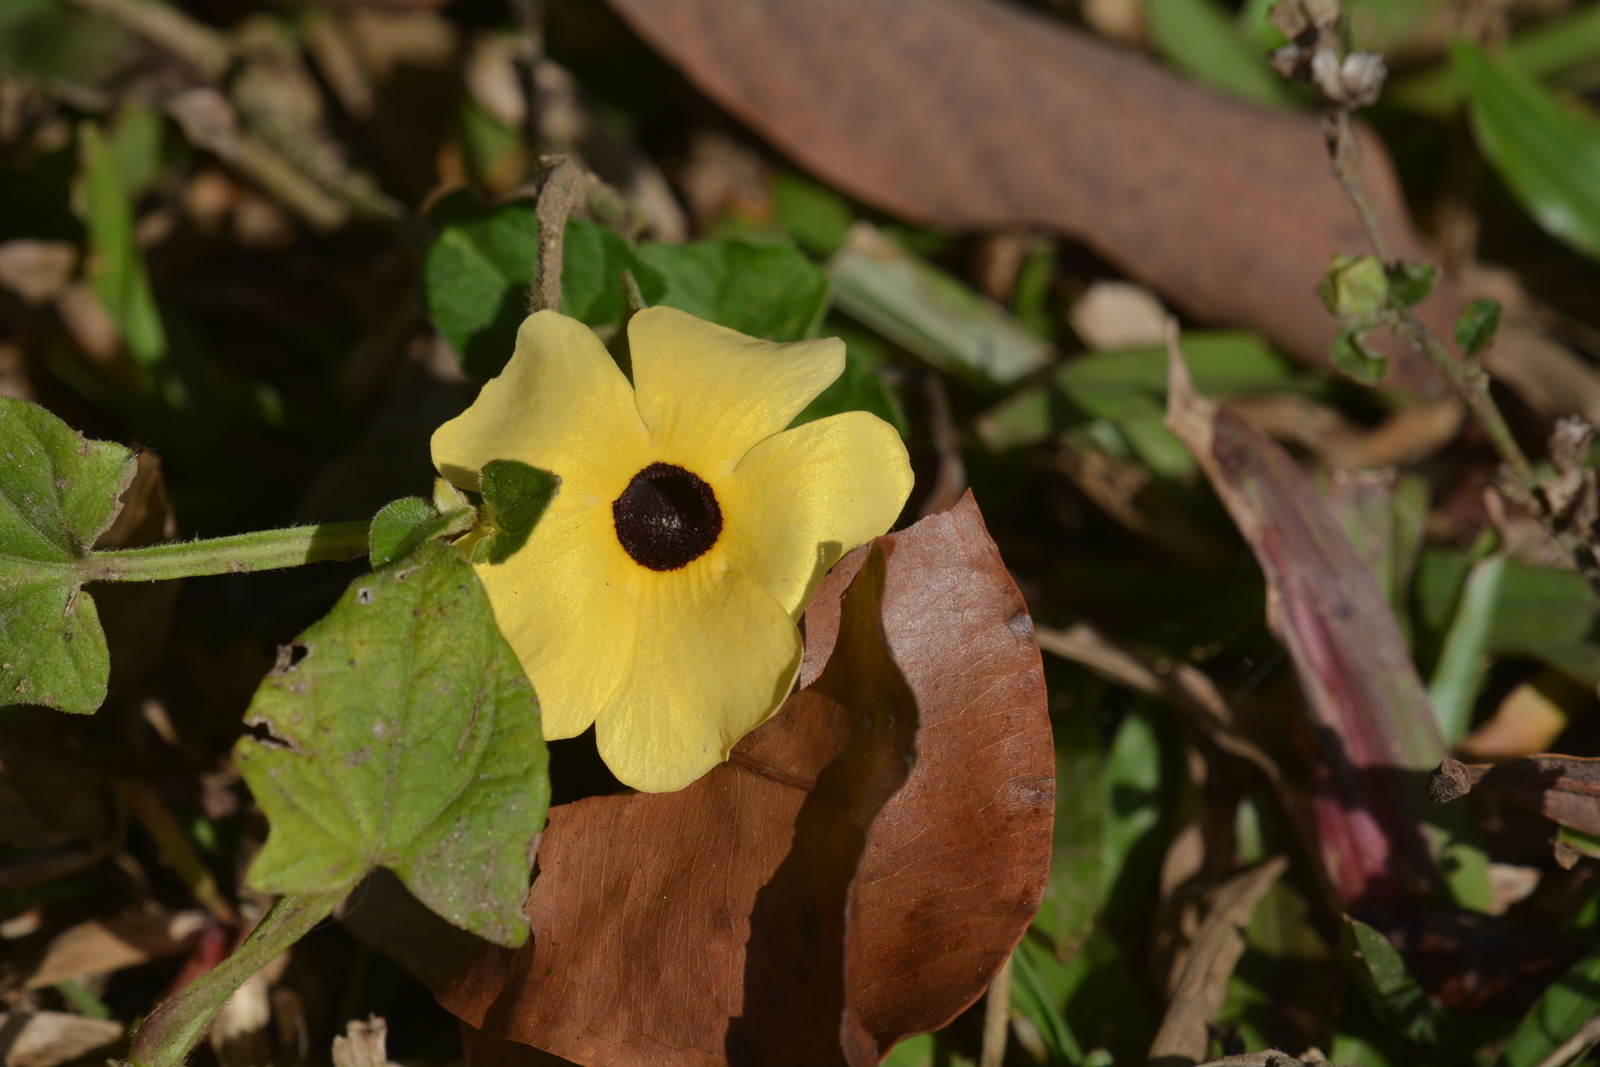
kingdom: Plantae
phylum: Tracheophyta
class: Magnoliopsida
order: Lamiales
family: Acanthaceae
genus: Thunbergia
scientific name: Thunbergia alata
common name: Blackeyed susan vine
